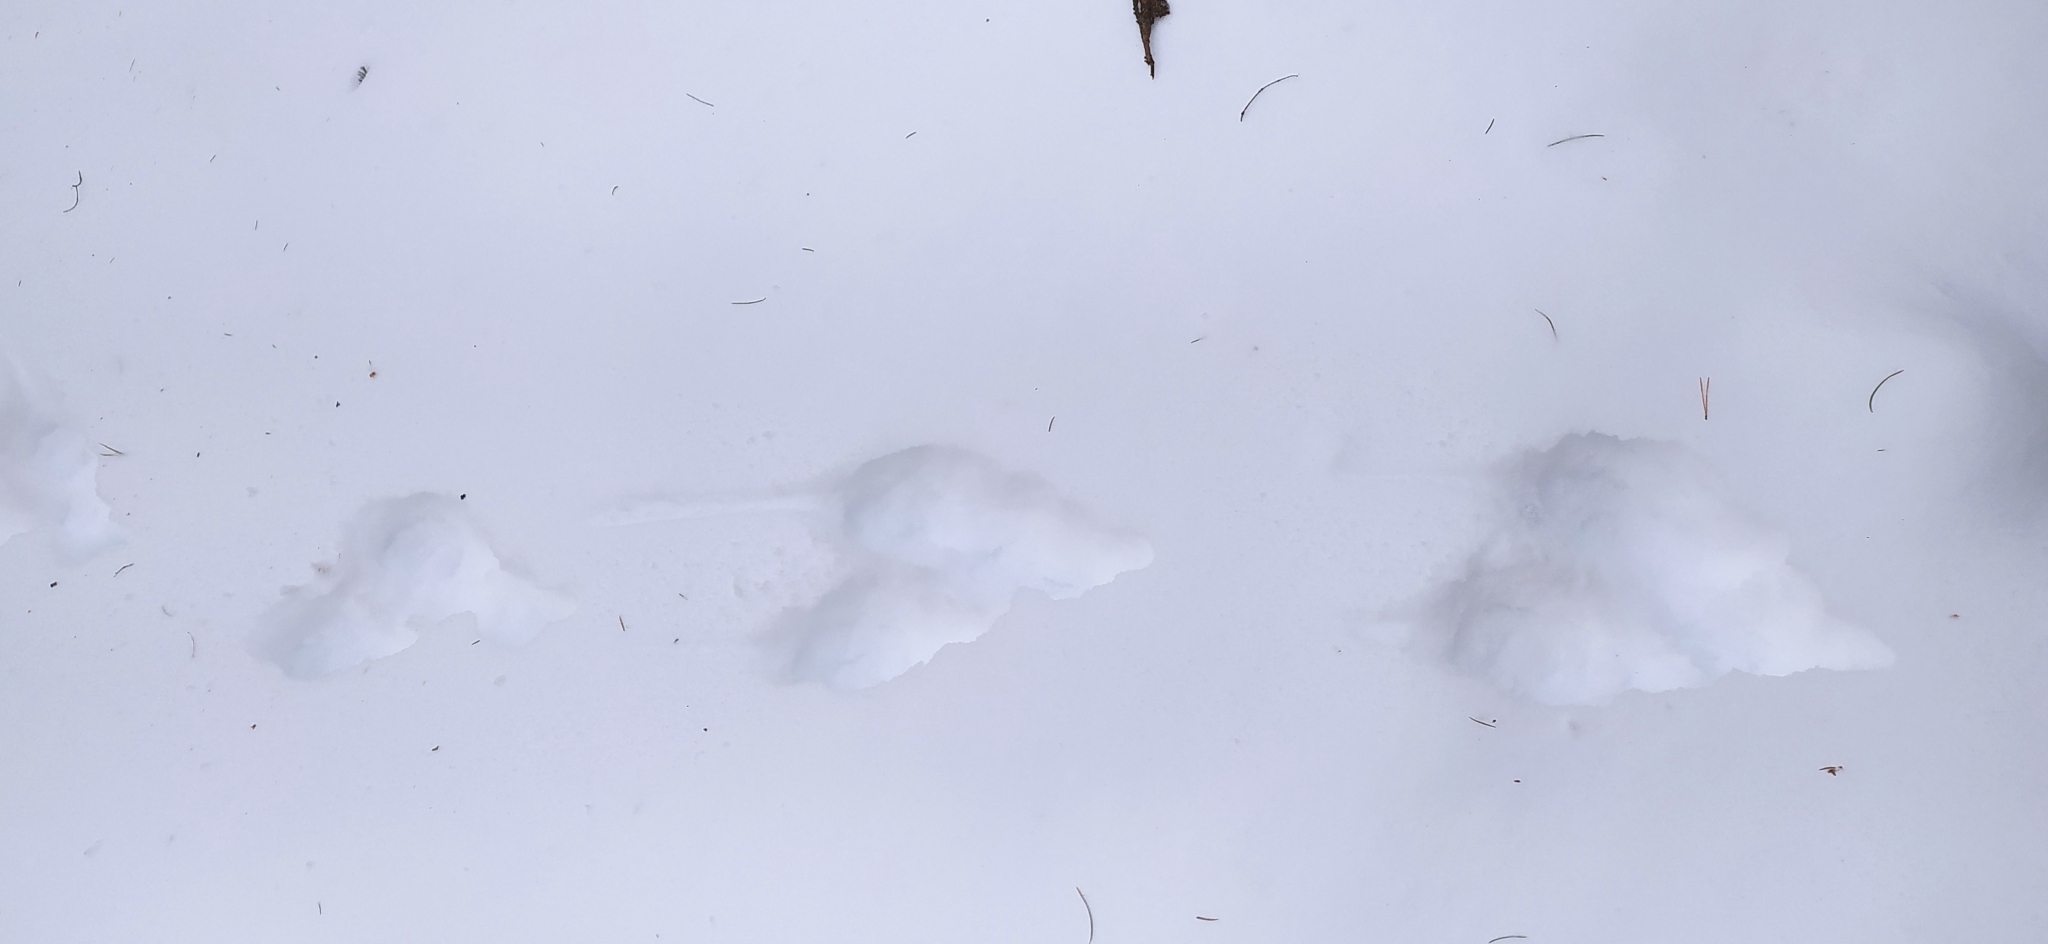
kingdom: Animalia
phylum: Chordata
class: Mammalia
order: Lagomorpha
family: Leporidae
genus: Lepus
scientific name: Lepus timidus
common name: Mountain hare
